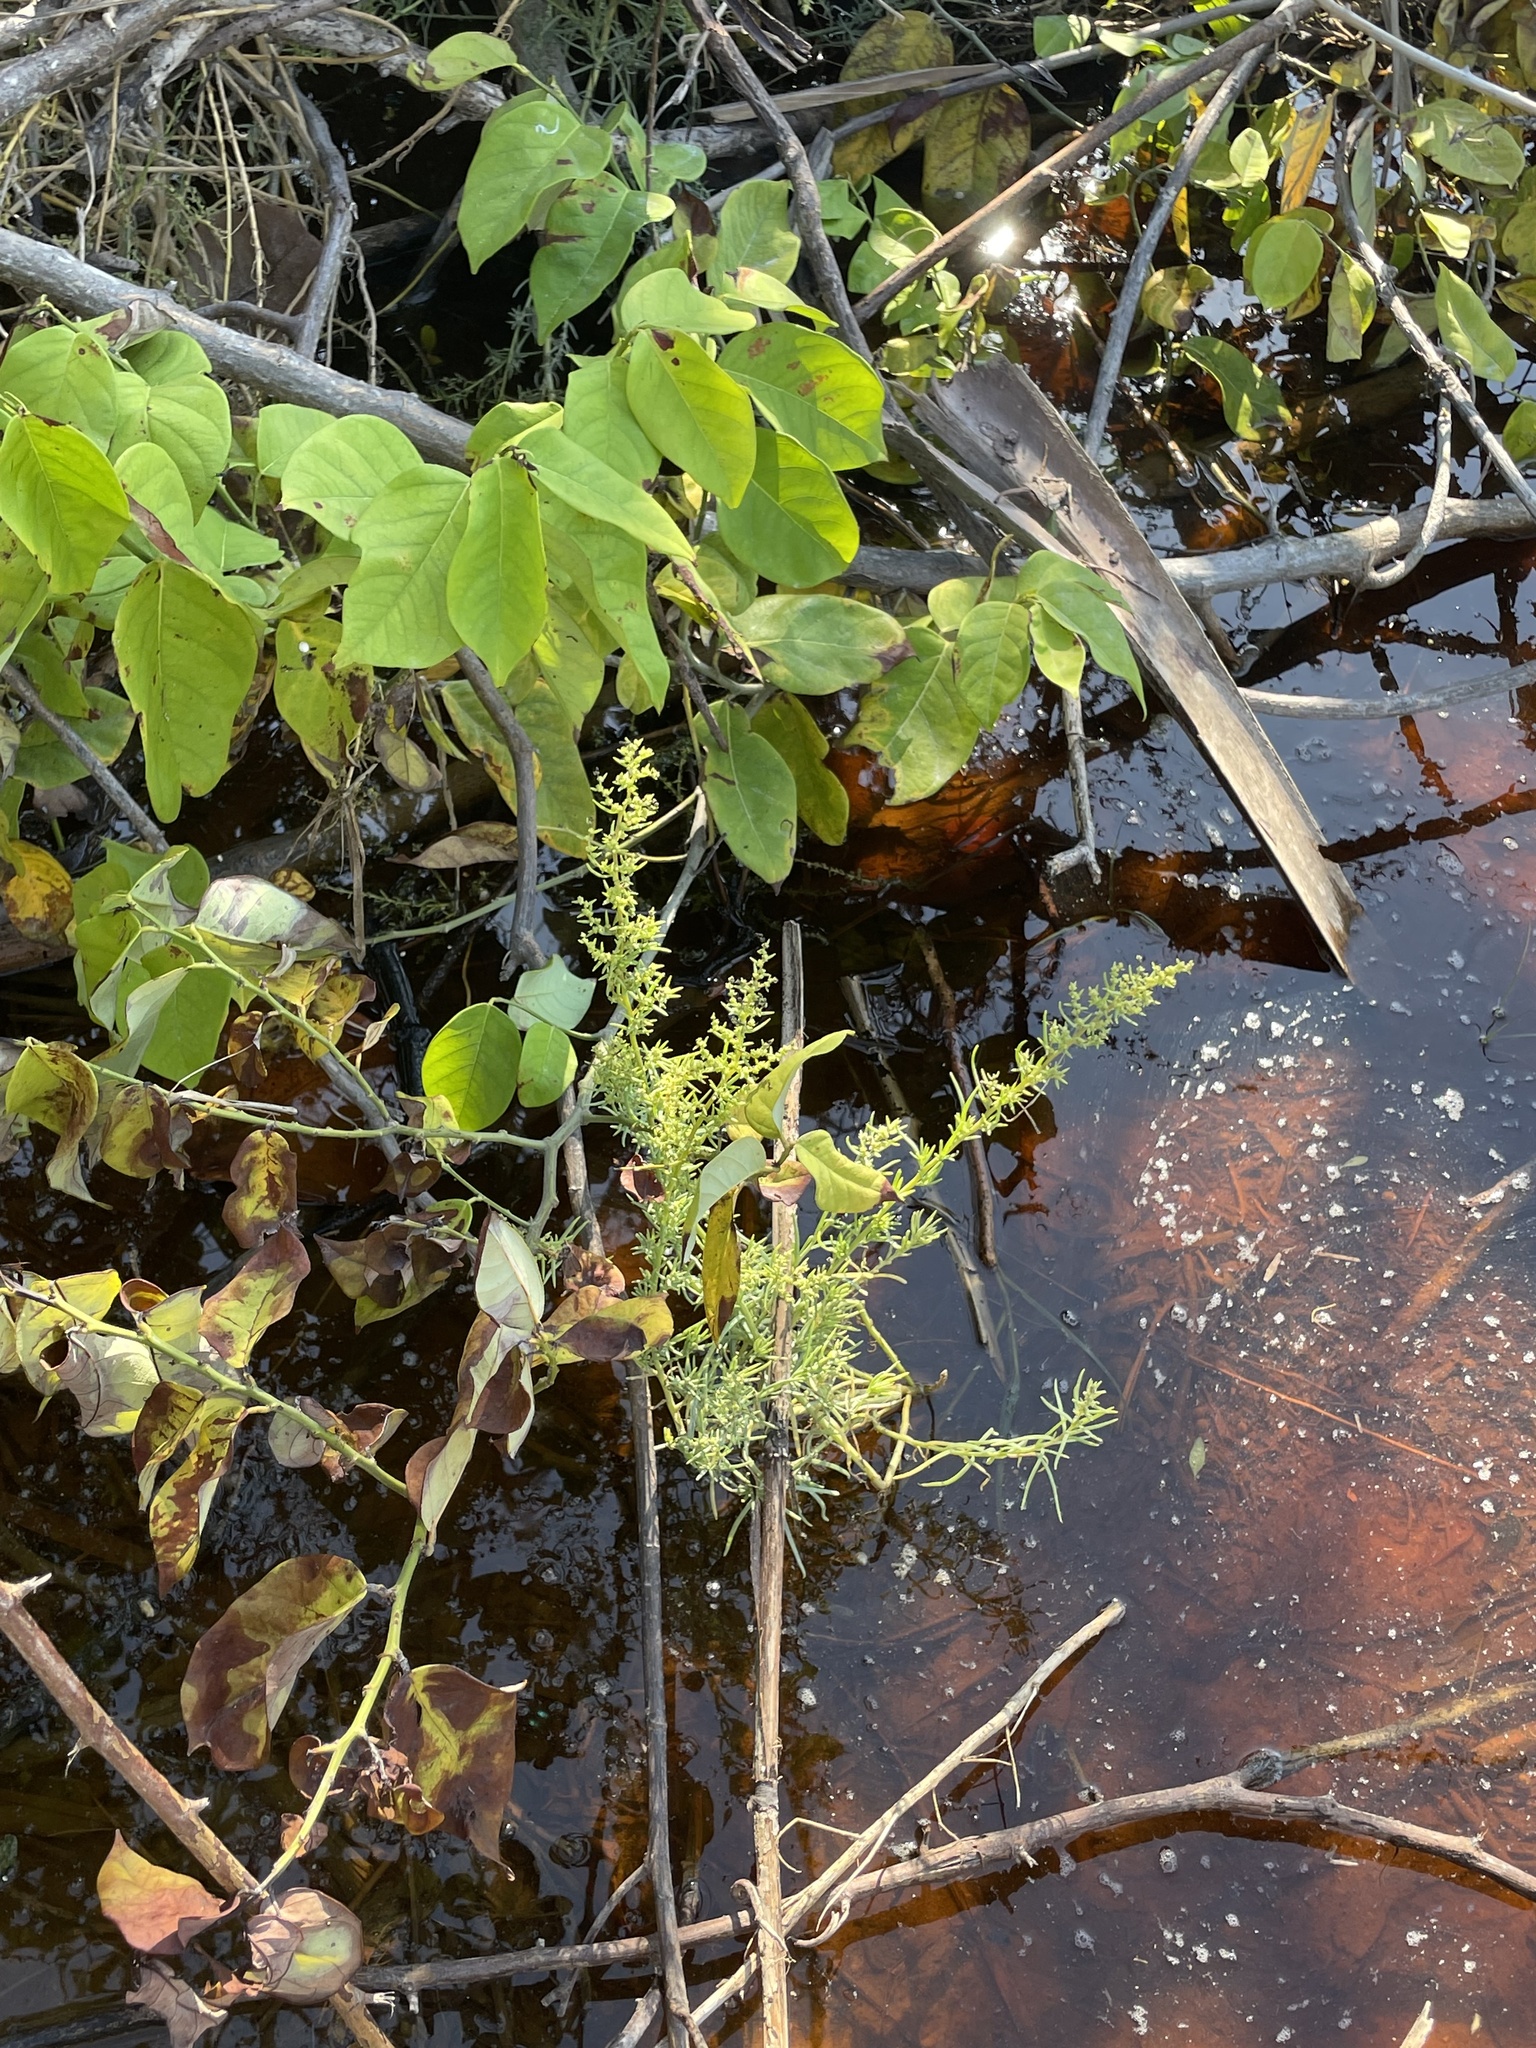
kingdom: Plantae
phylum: Tracheophyta
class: Magnoliopsida
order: Caryophyllales
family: Amaranthaceae
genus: Suaeda
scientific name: Suaeda linearis
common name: Annual seepweed
